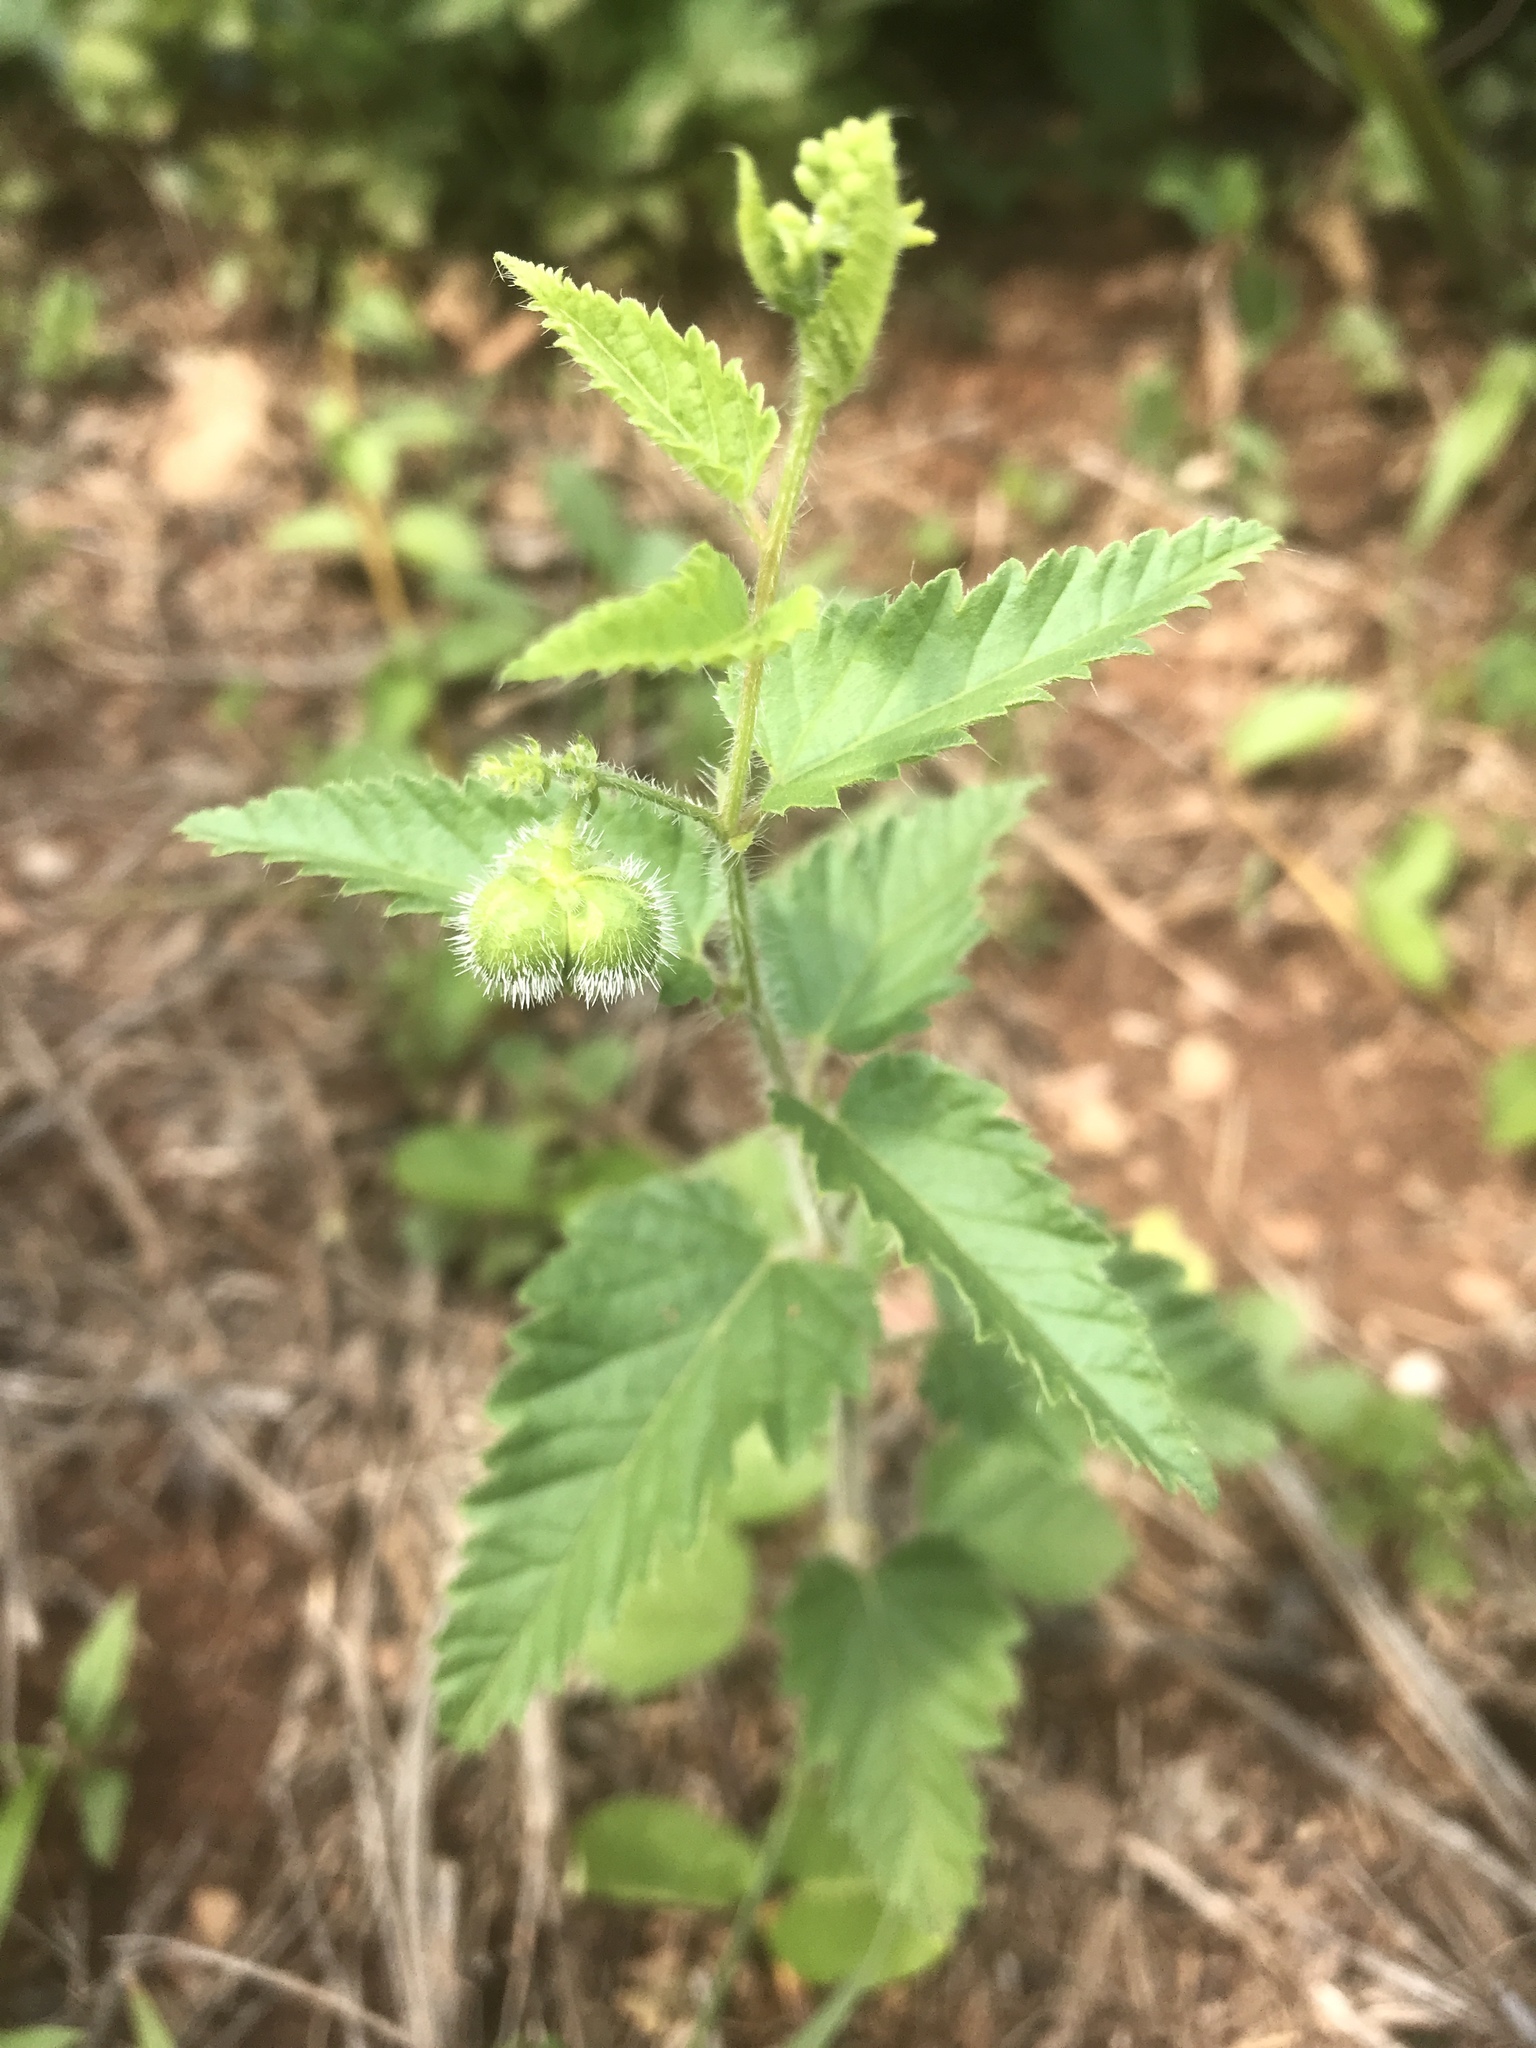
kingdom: Plantae
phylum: Tracheophyta
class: Magnoliopsida
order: Malpighiales
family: Euphorbiaceae
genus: Tragia
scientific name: Tragia urticifolia
